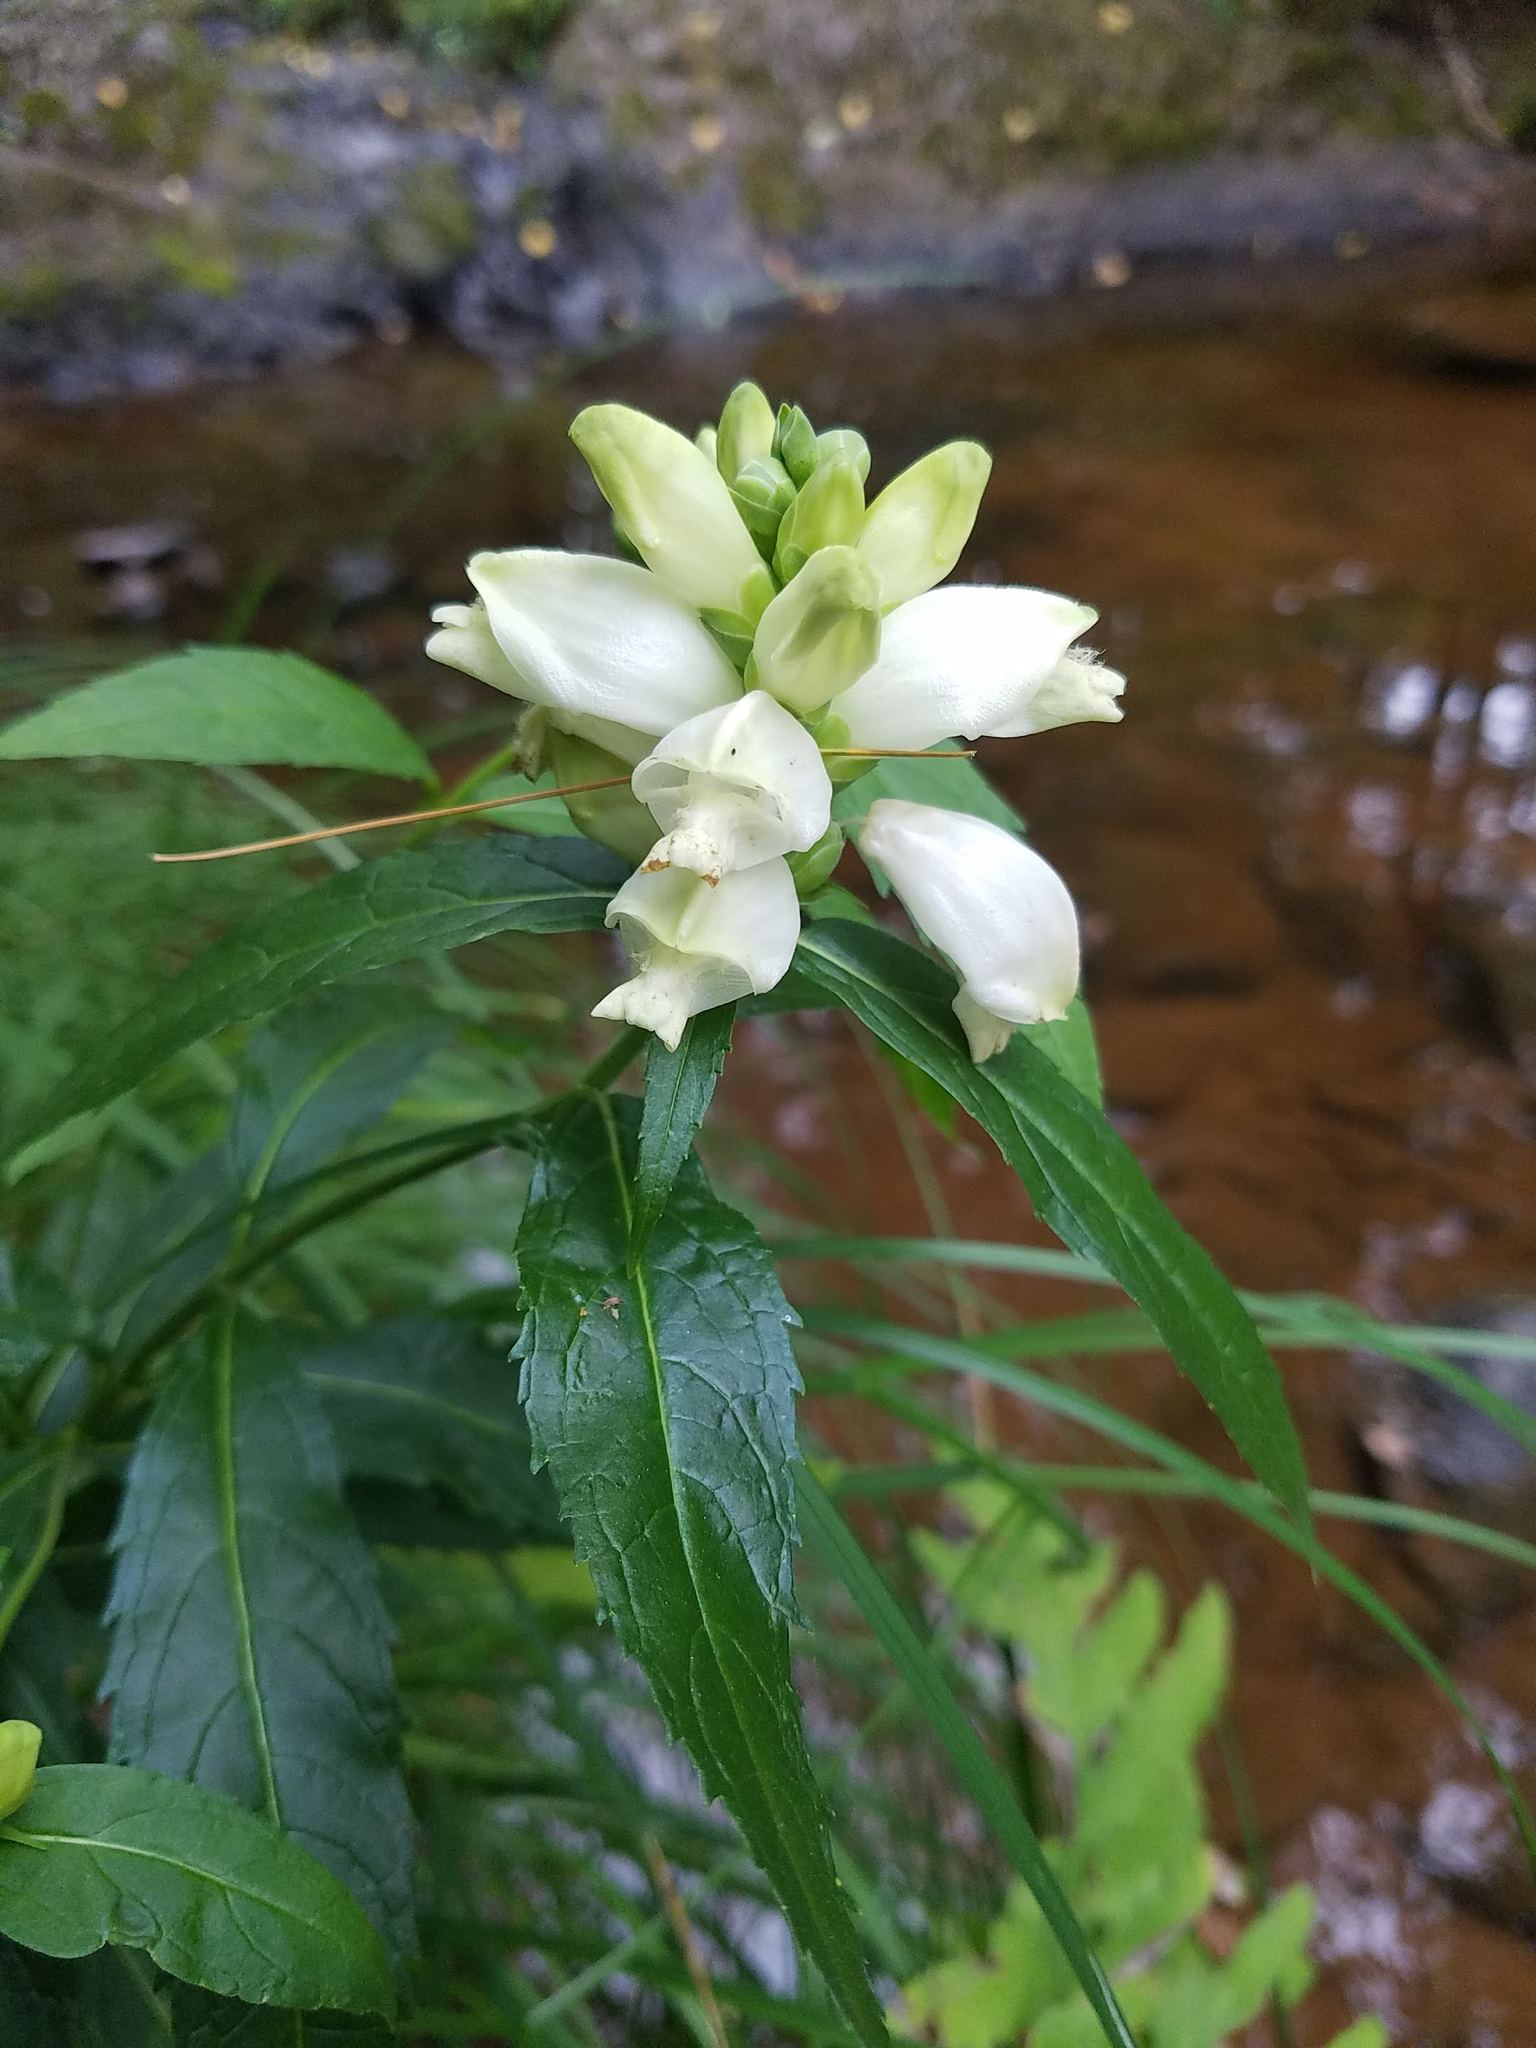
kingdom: Plantae
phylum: Tracheophyta
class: Magnoliopsida
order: Lamiales
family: Plantaginaceae
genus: Chelone
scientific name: Chelone glabra
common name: Snakehead
